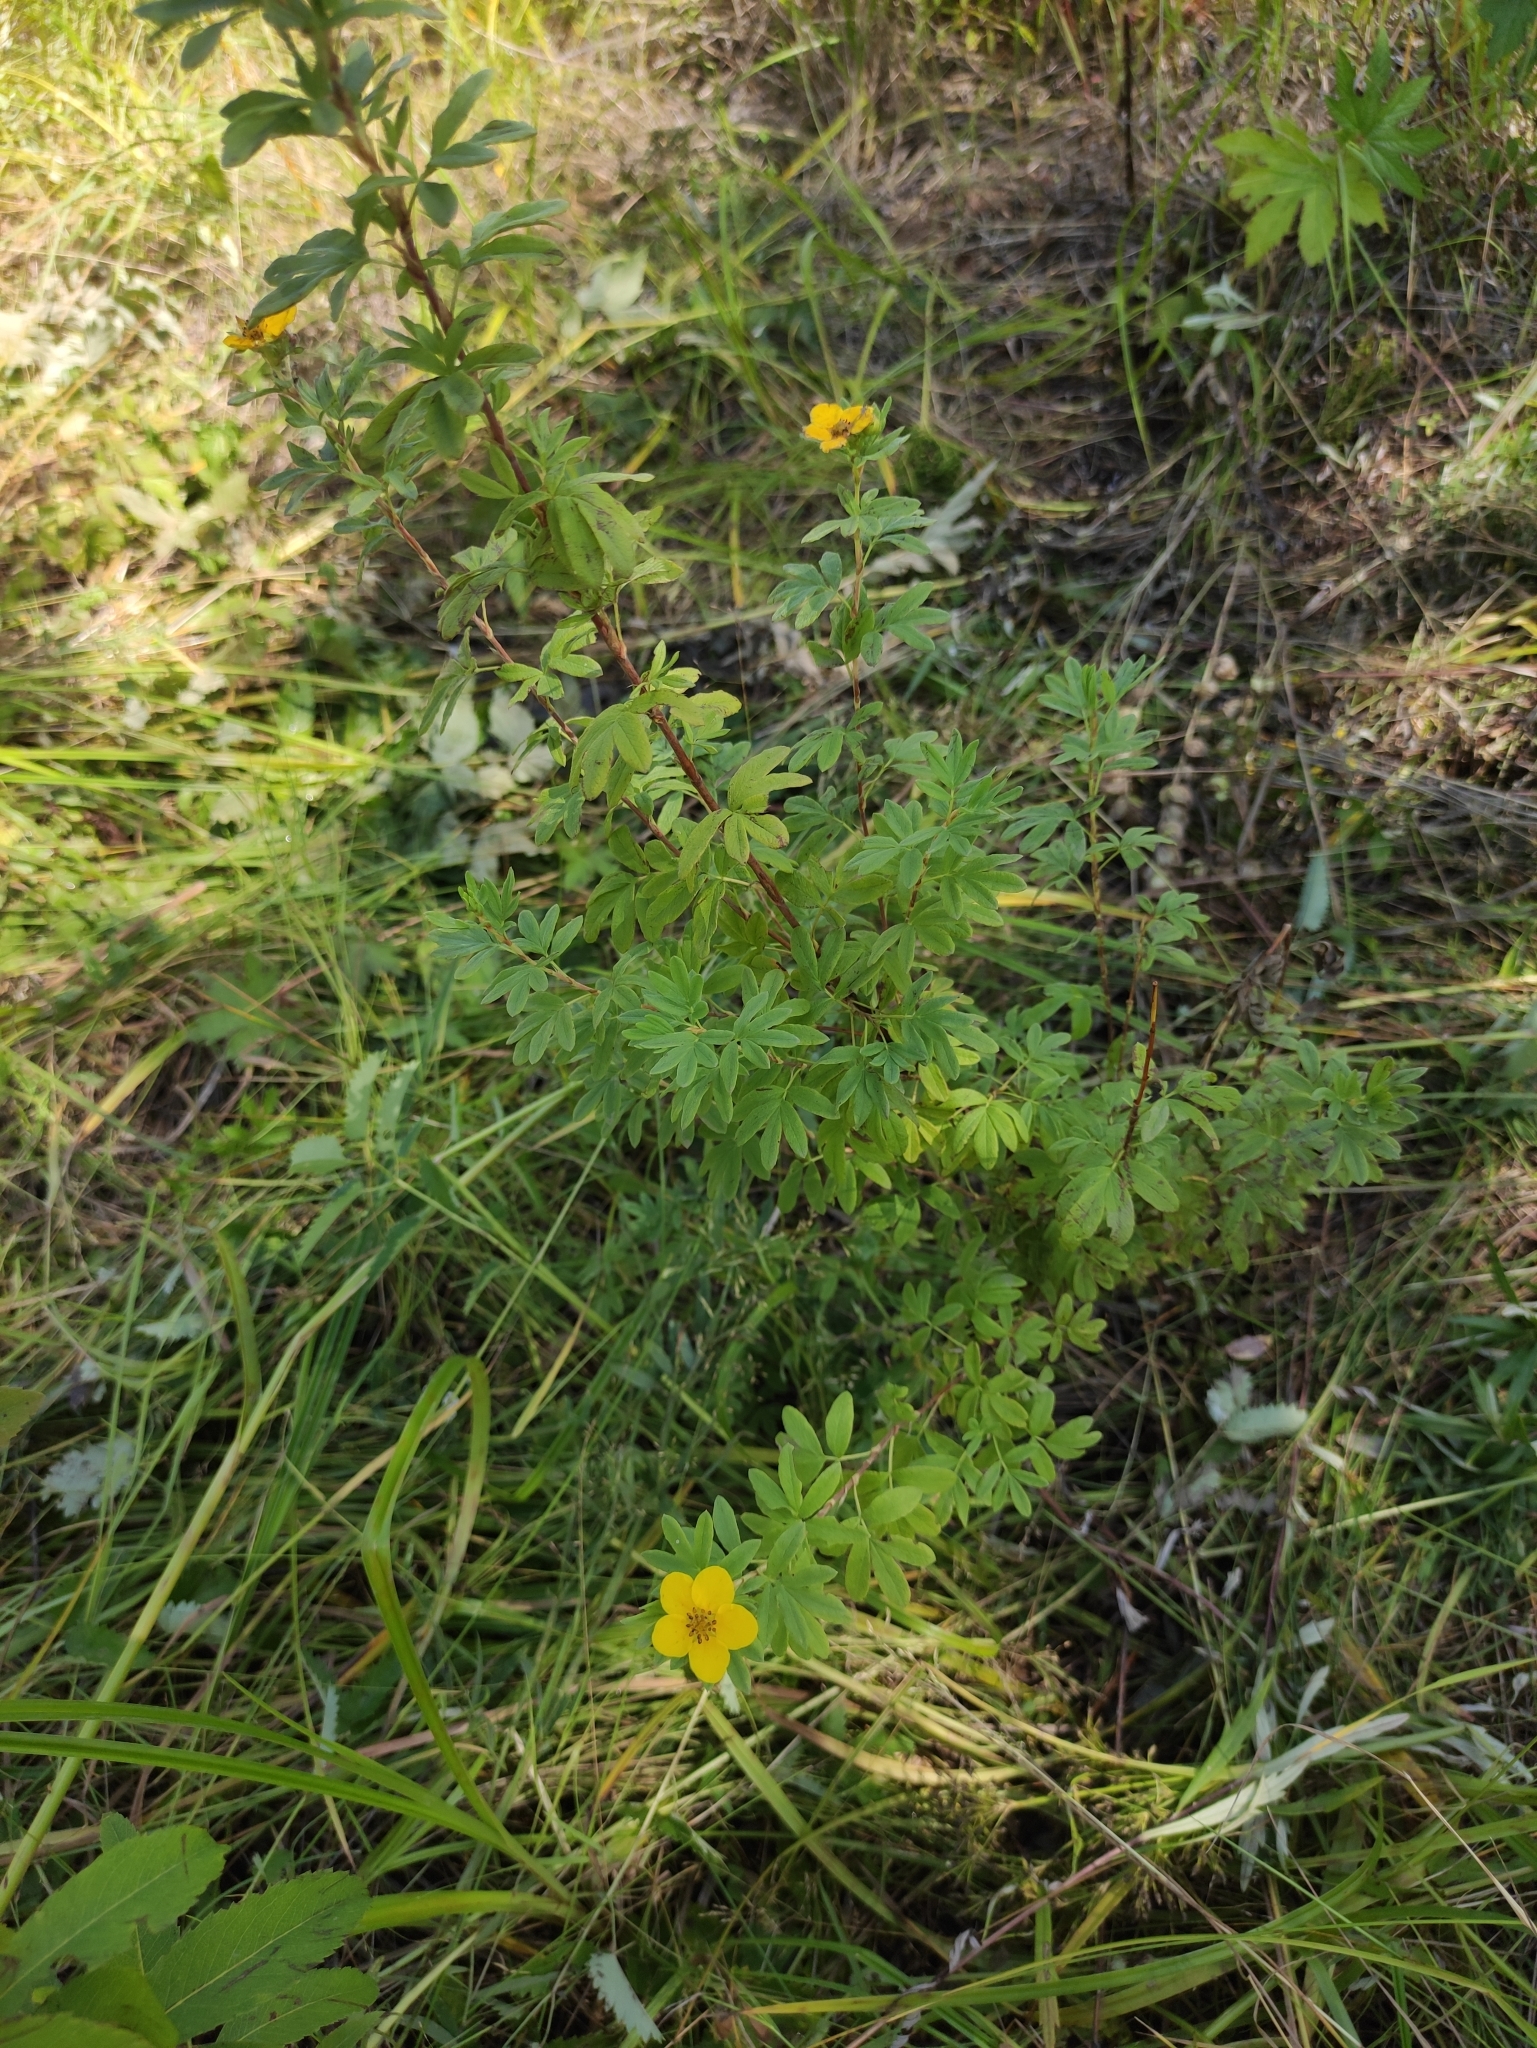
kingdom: Plantae
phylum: Tracheophyta
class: Magnoliopsida
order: Rosales
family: Rosaceae
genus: Dasiphora
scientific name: Dasiphora fruticosa
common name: Shrubby cinquefoil
